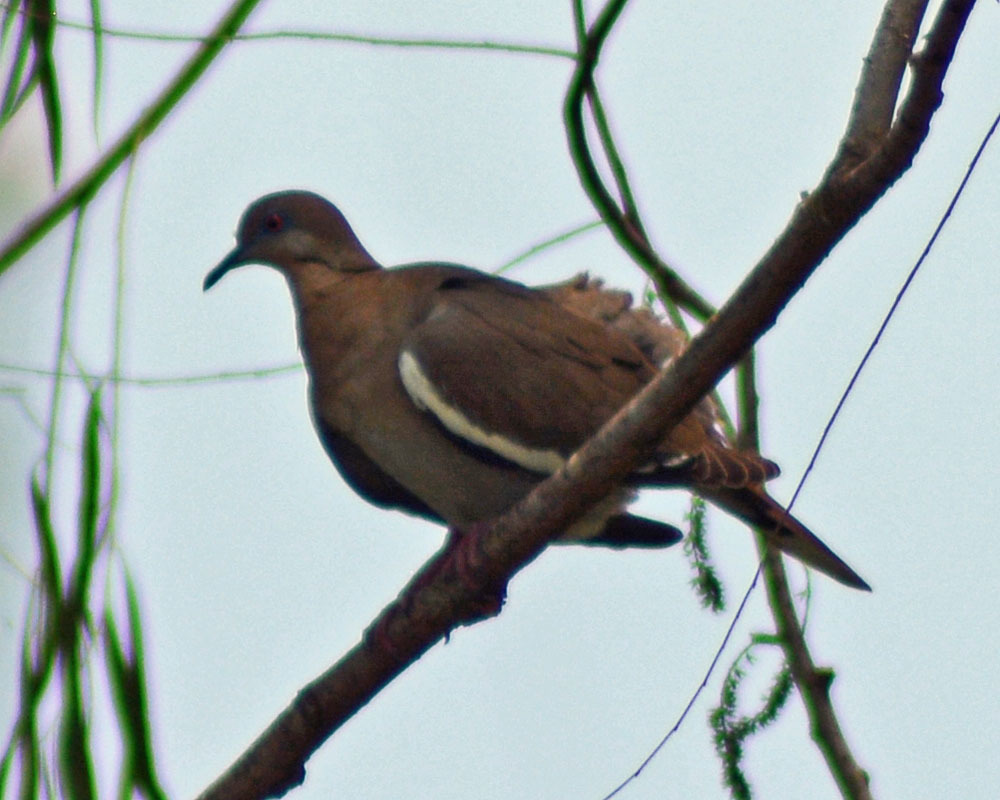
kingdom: Animalia
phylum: Chordata
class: Aves
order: Columbiformes
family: Columbidae
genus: Zenaida
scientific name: Zenaida asiatica
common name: White-winged dove
